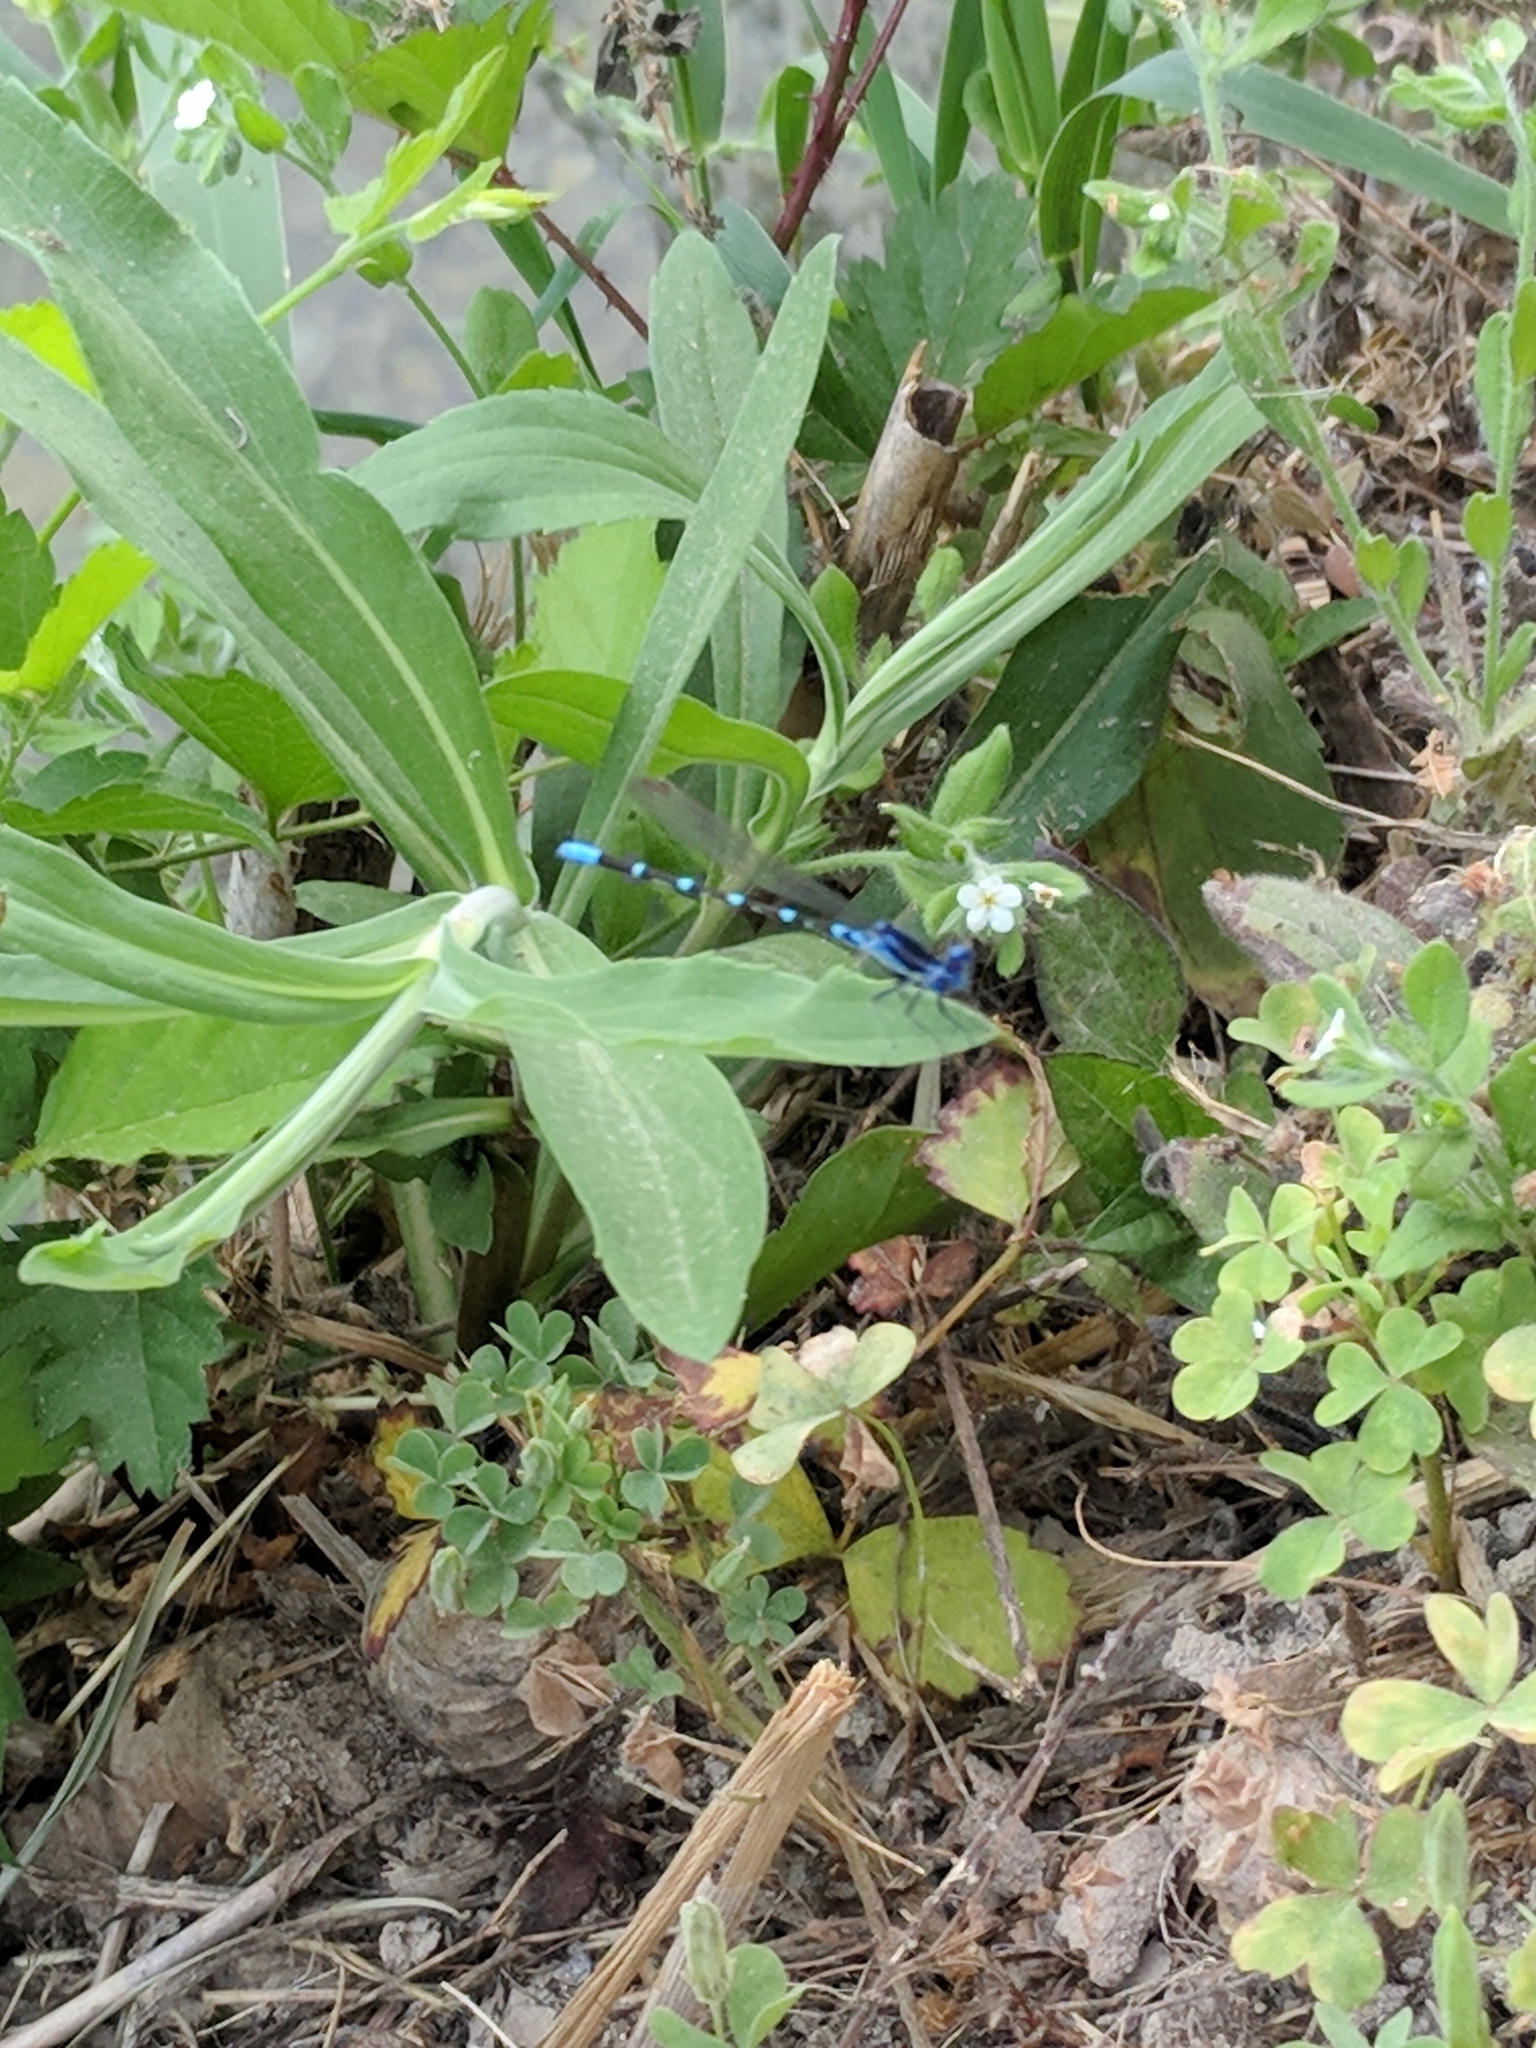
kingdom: Animalia
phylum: Arthropoda
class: Insecta
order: Odonata
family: Coenagrionidae
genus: Argia
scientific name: Argia sedula
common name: Blue-ringed dancer
